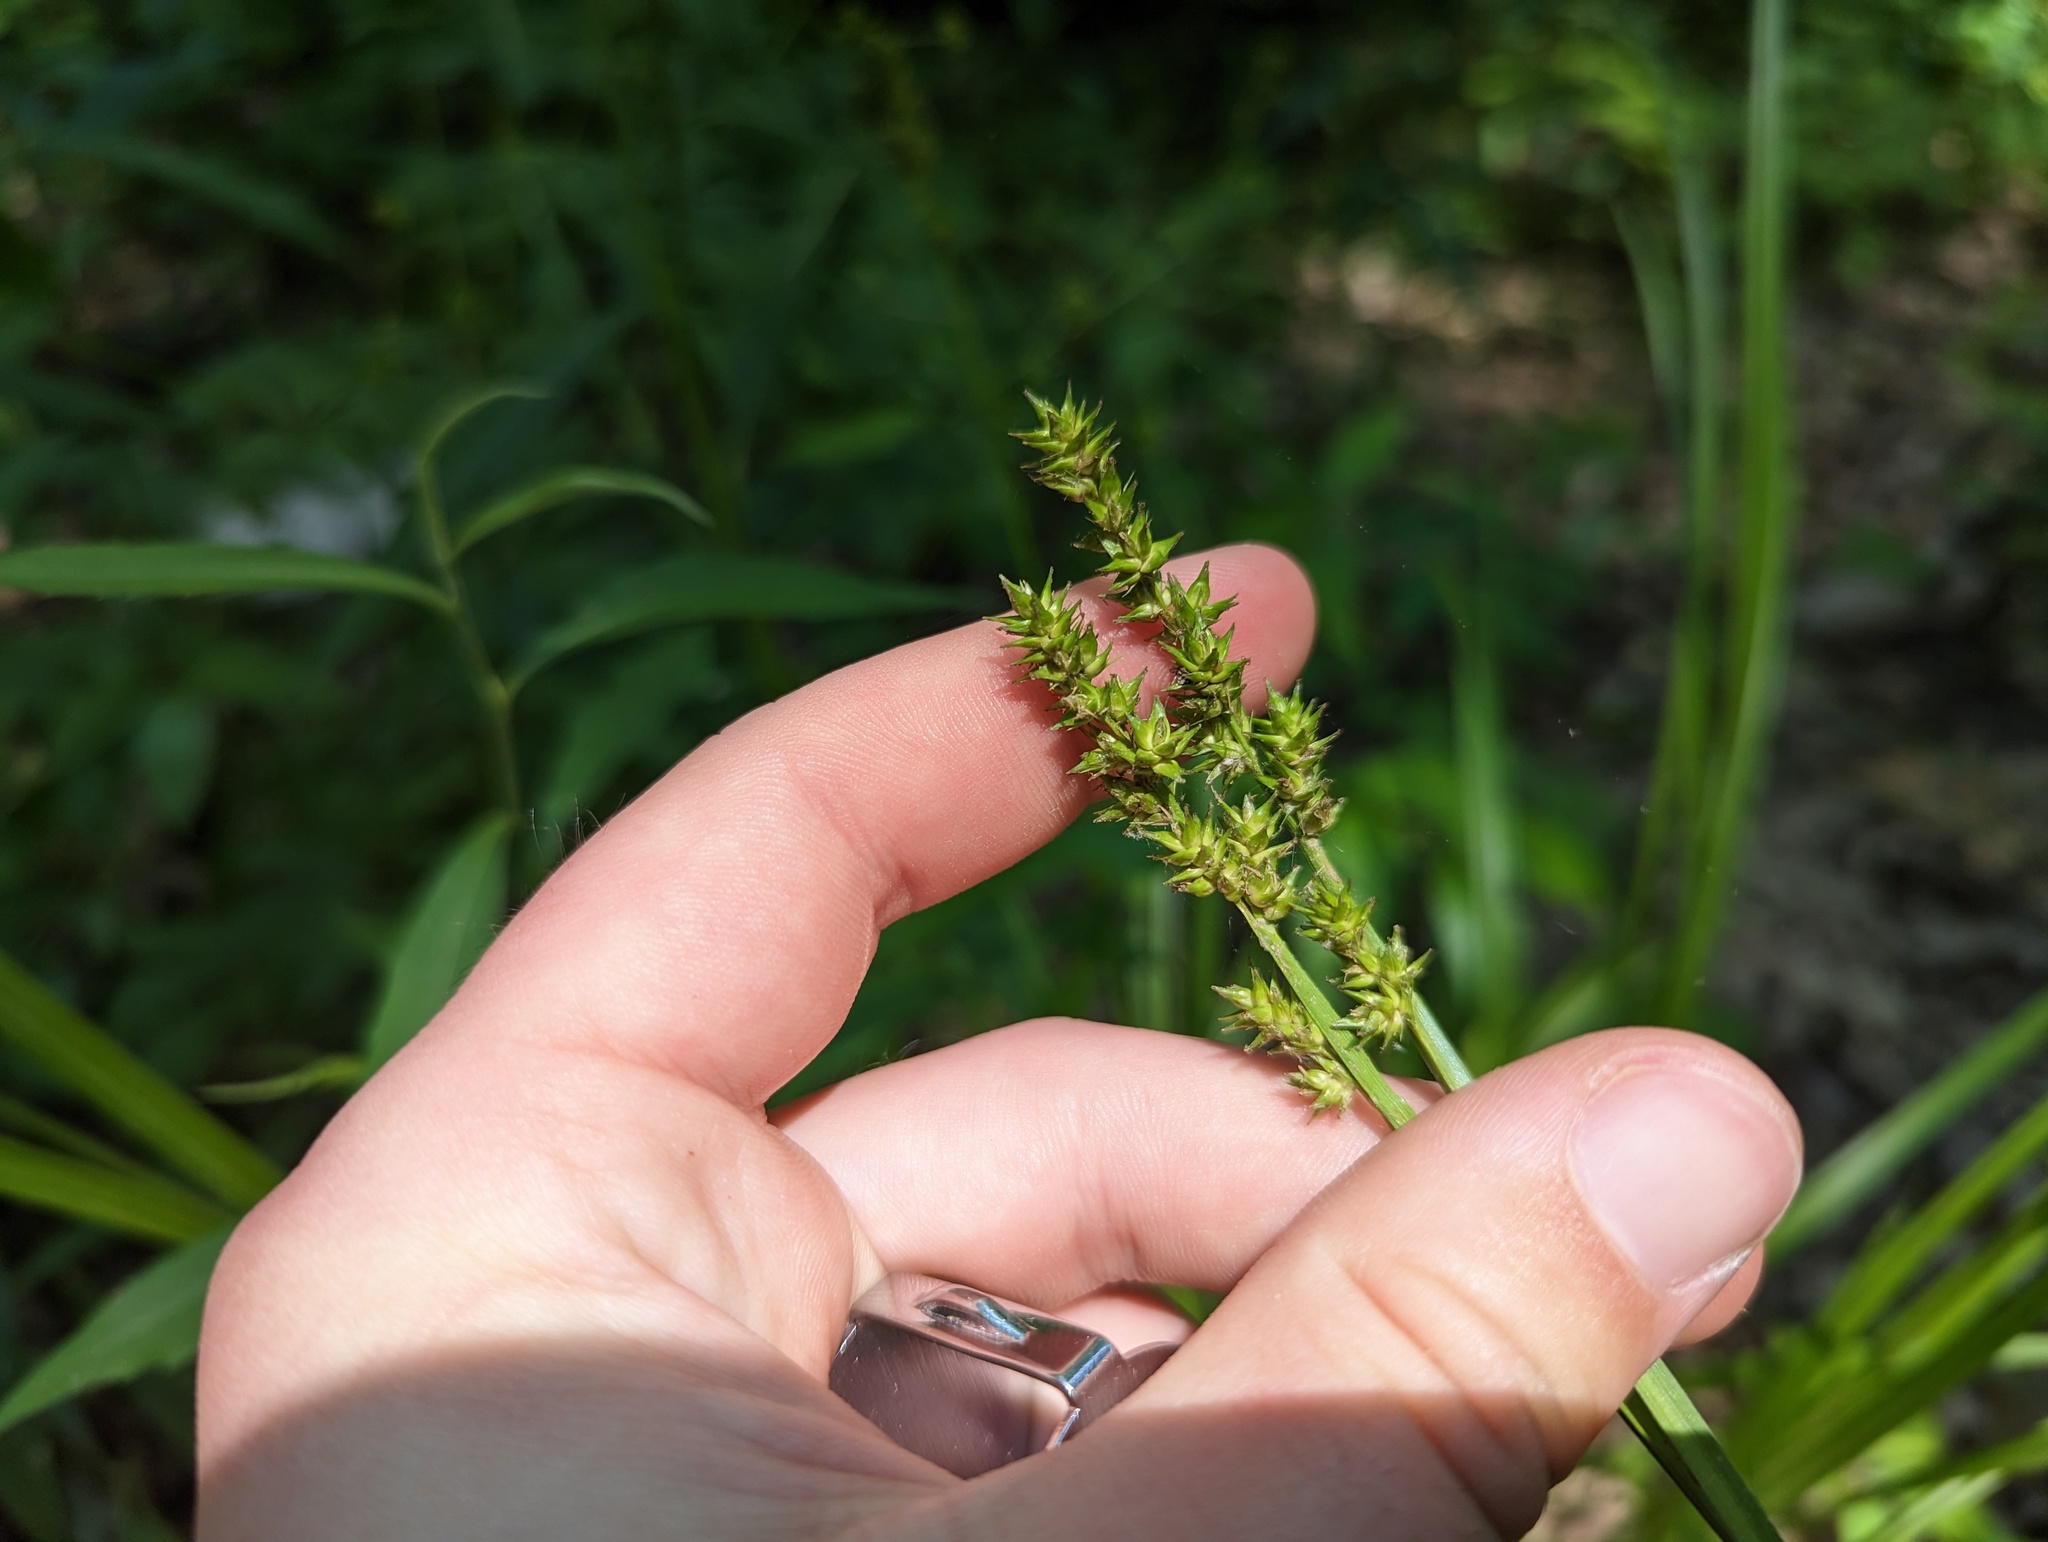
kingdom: Plantae
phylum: Tracheophyta
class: Liliopsida
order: Poales
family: Cyperaceae
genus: Carex
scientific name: Carex conjuncta
